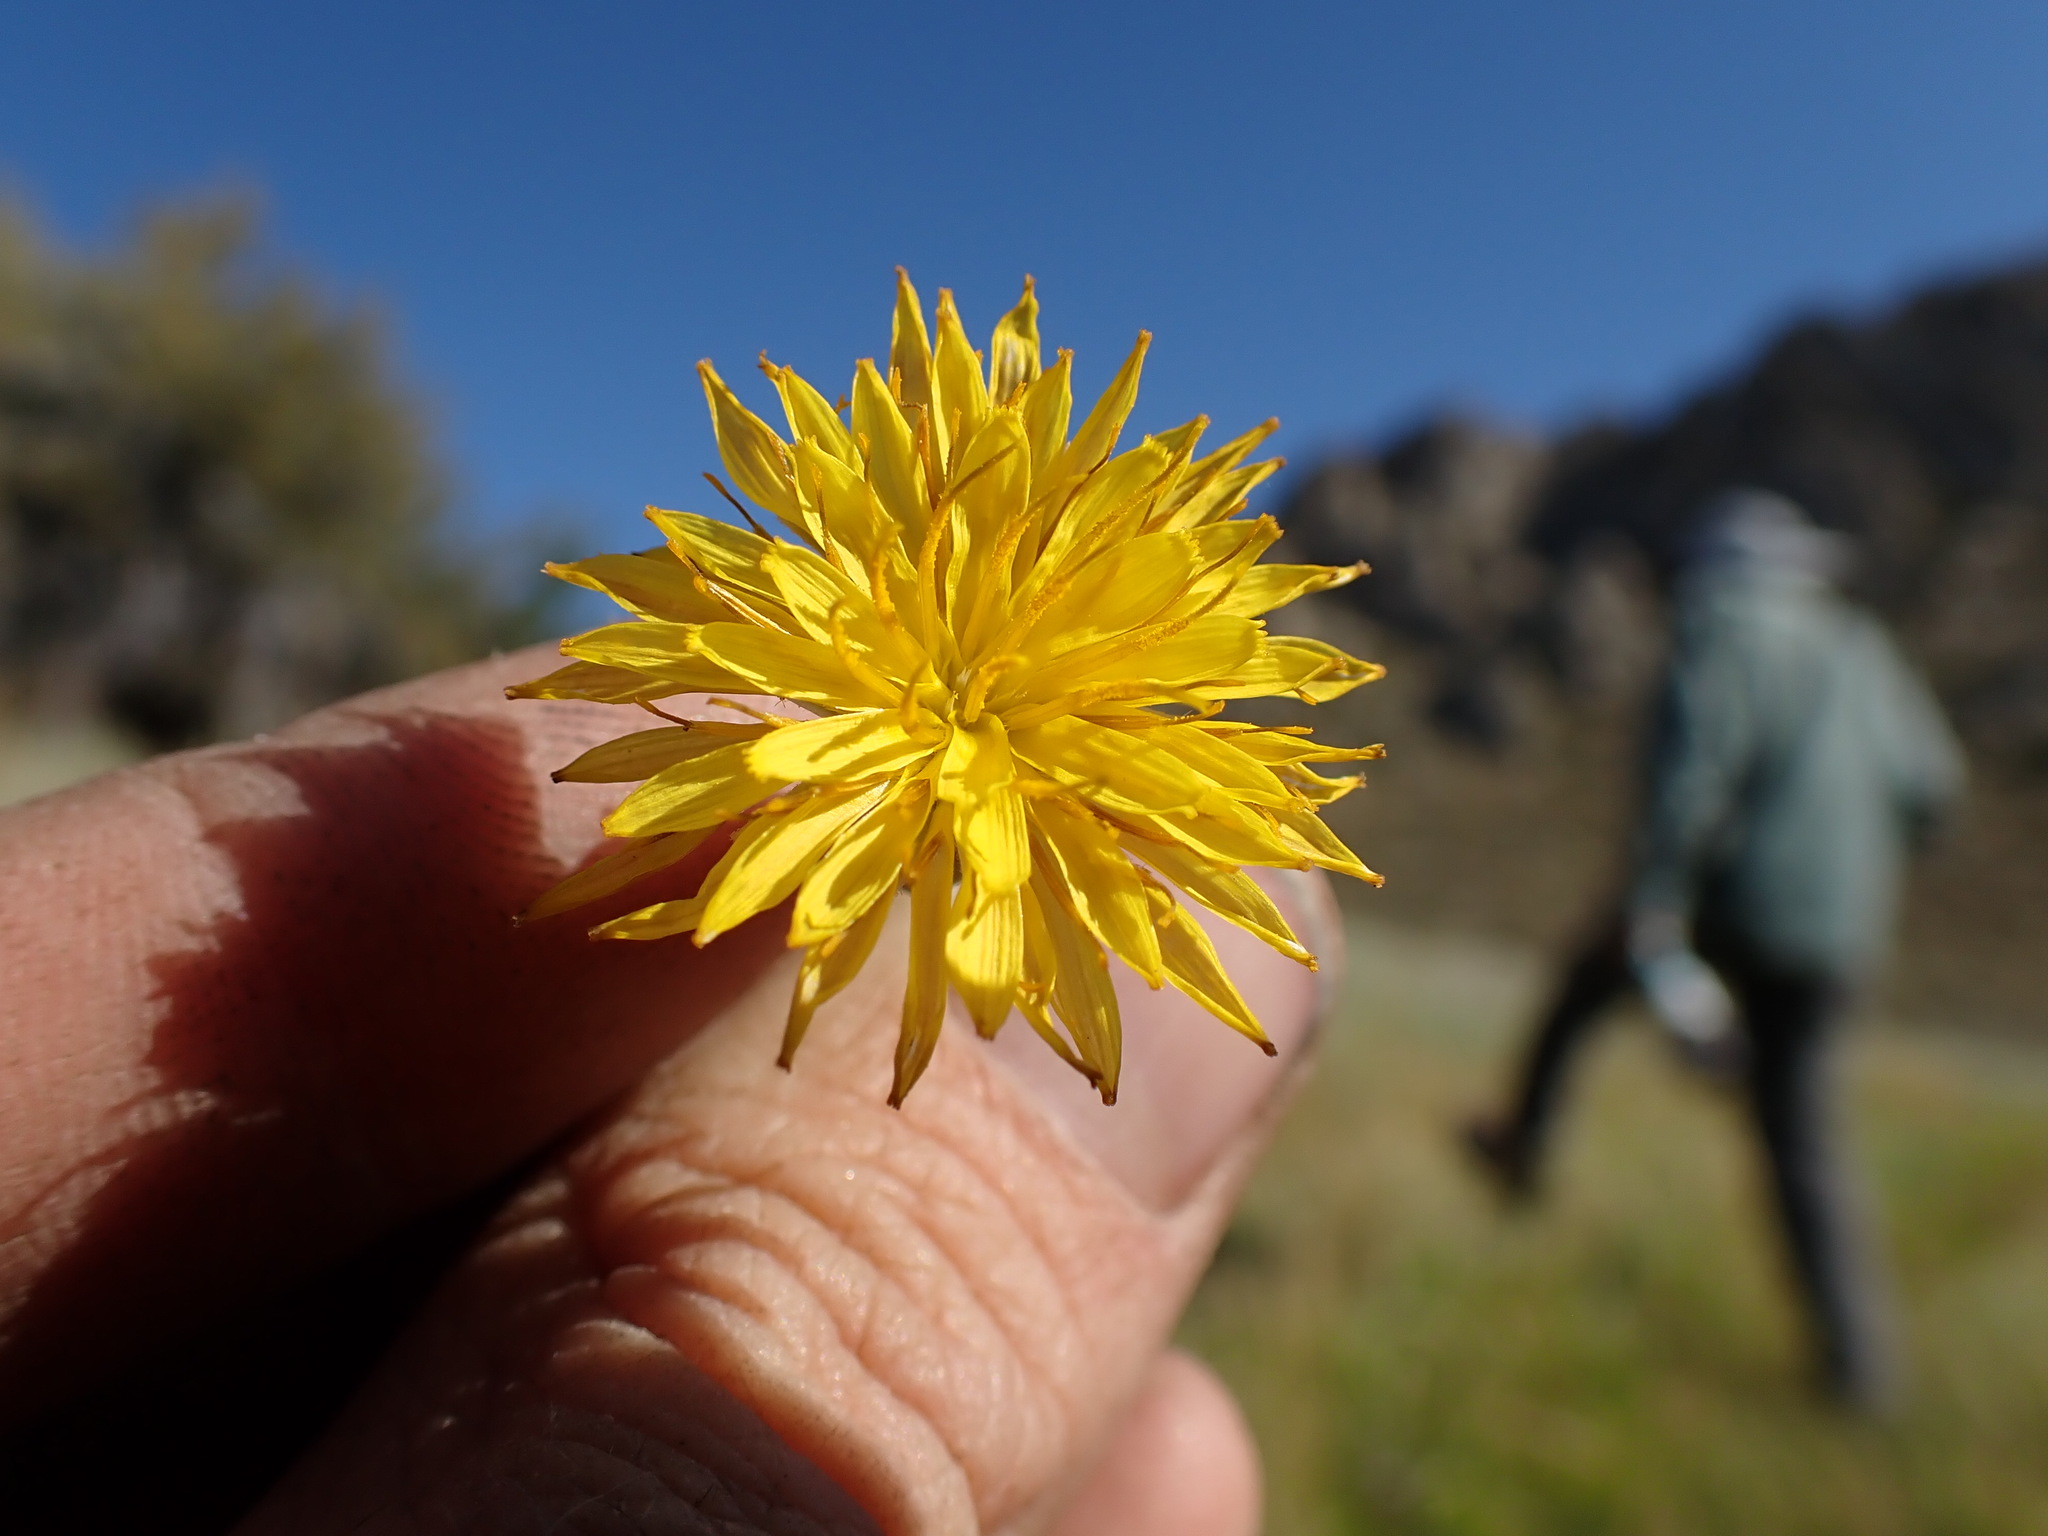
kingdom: Plantae
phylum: Tracheophyta
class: Magnoliopsida
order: Asterales
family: Asteraceae
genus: Agoseris
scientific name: Agoseris glauca
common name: Prairie agoseris
